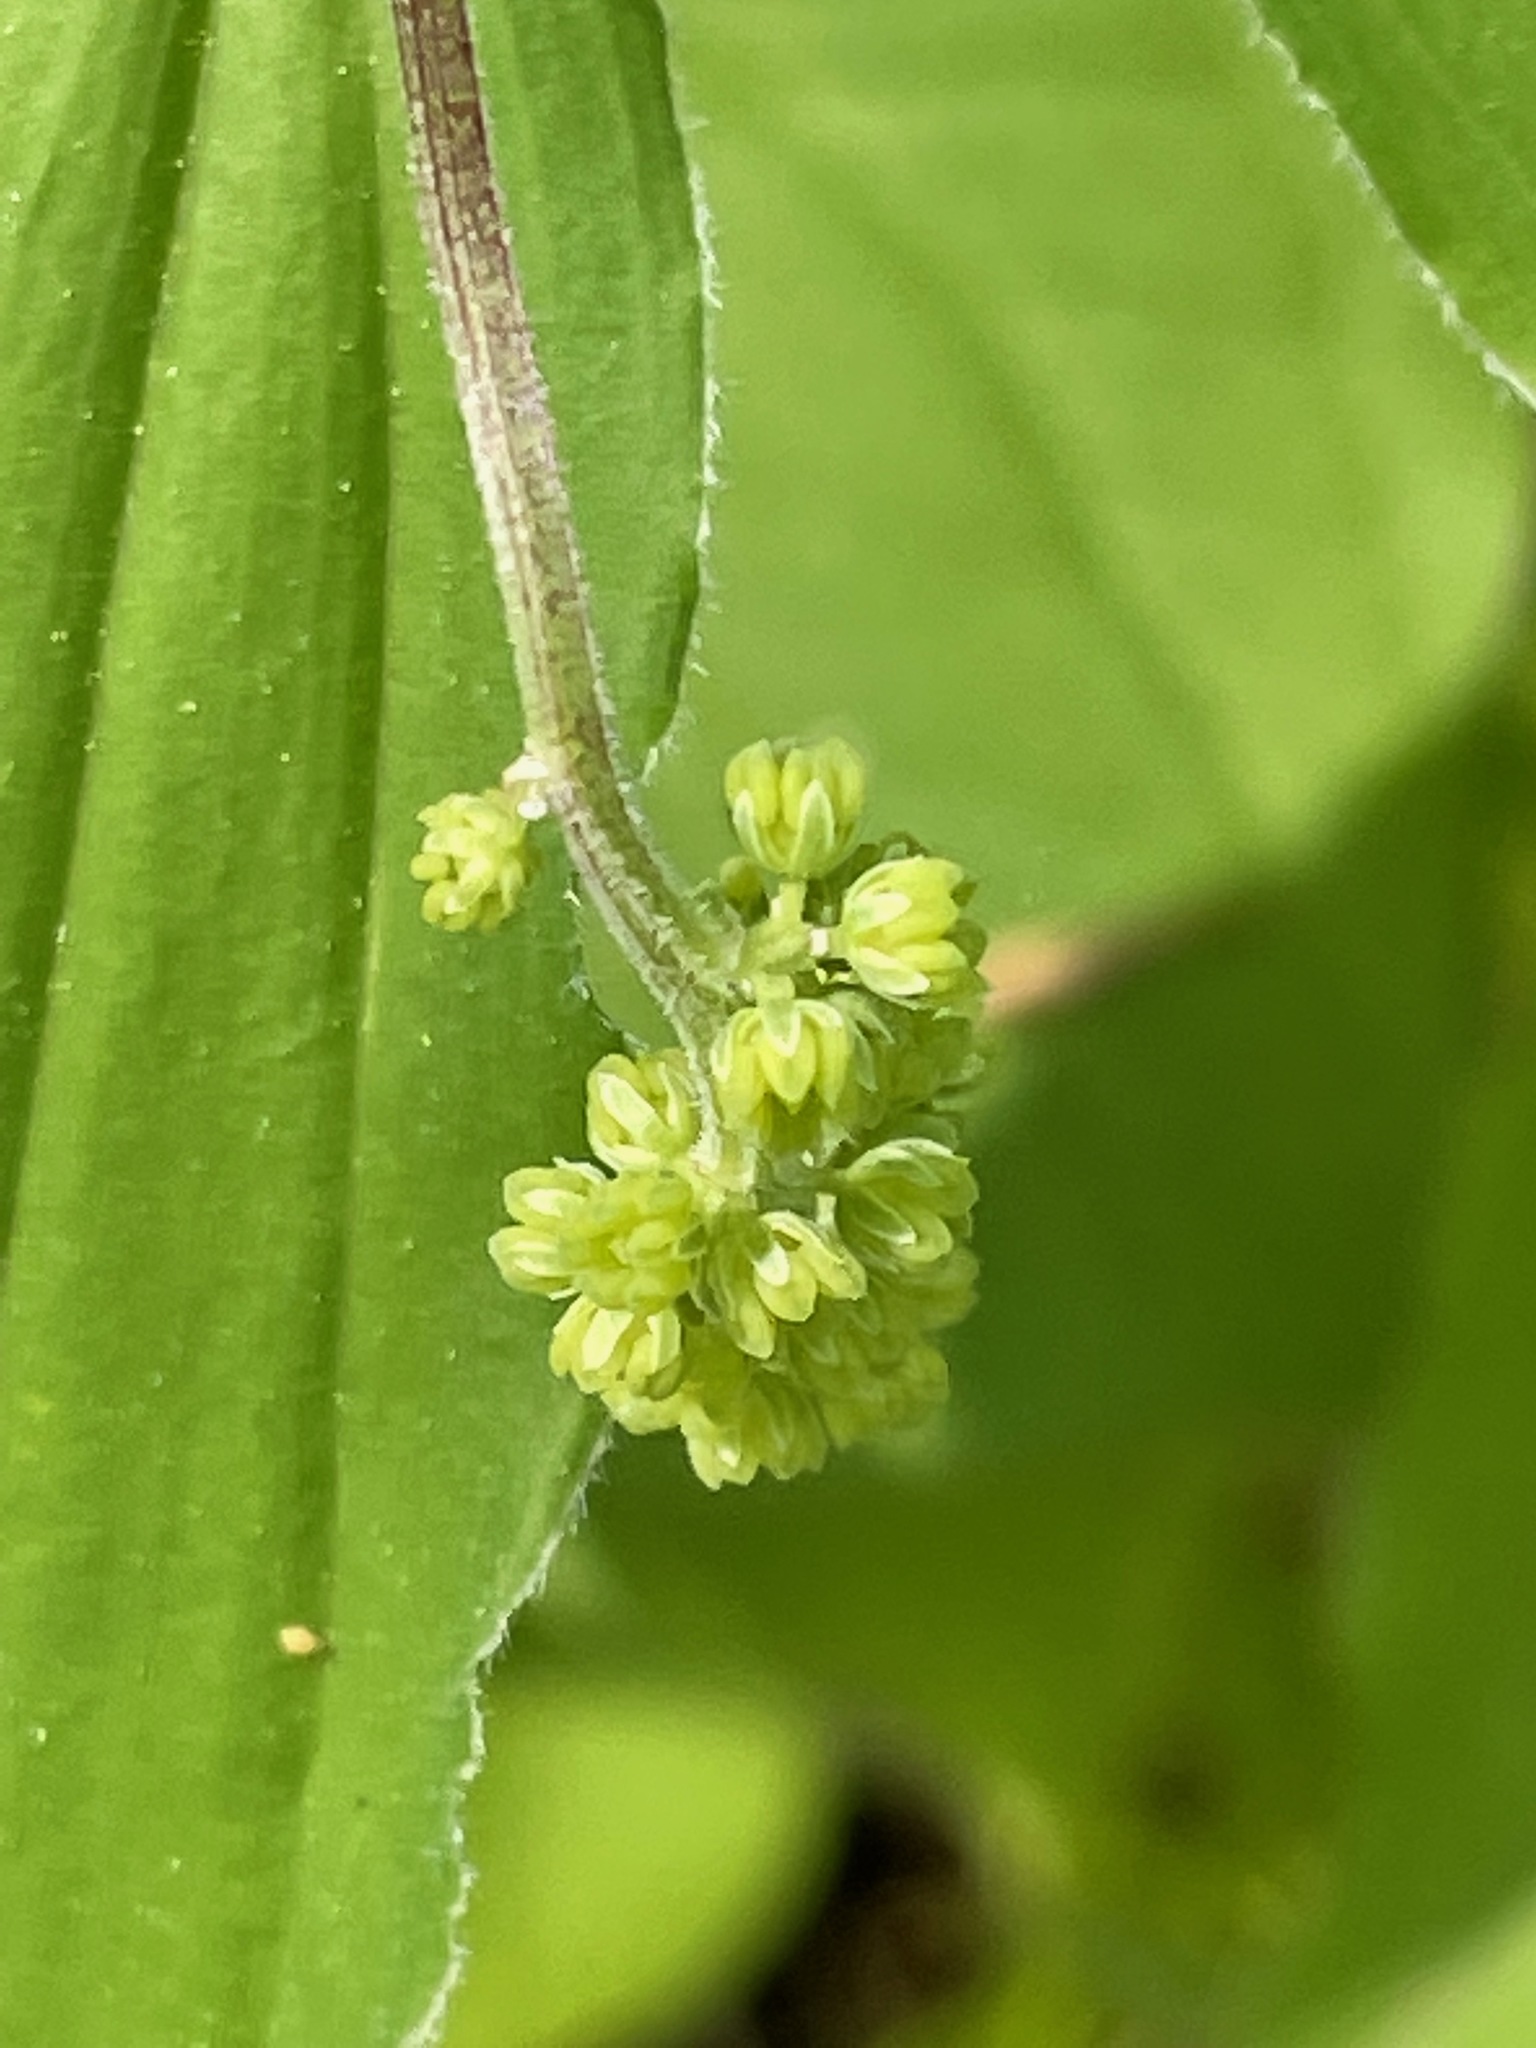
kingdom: Plantae
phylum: Tracheophyta
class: Liliopsida
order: Asparagales
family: Asparagaceae
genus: Maianthemum
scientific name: Maianthemum racemosum
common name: False spikenard
